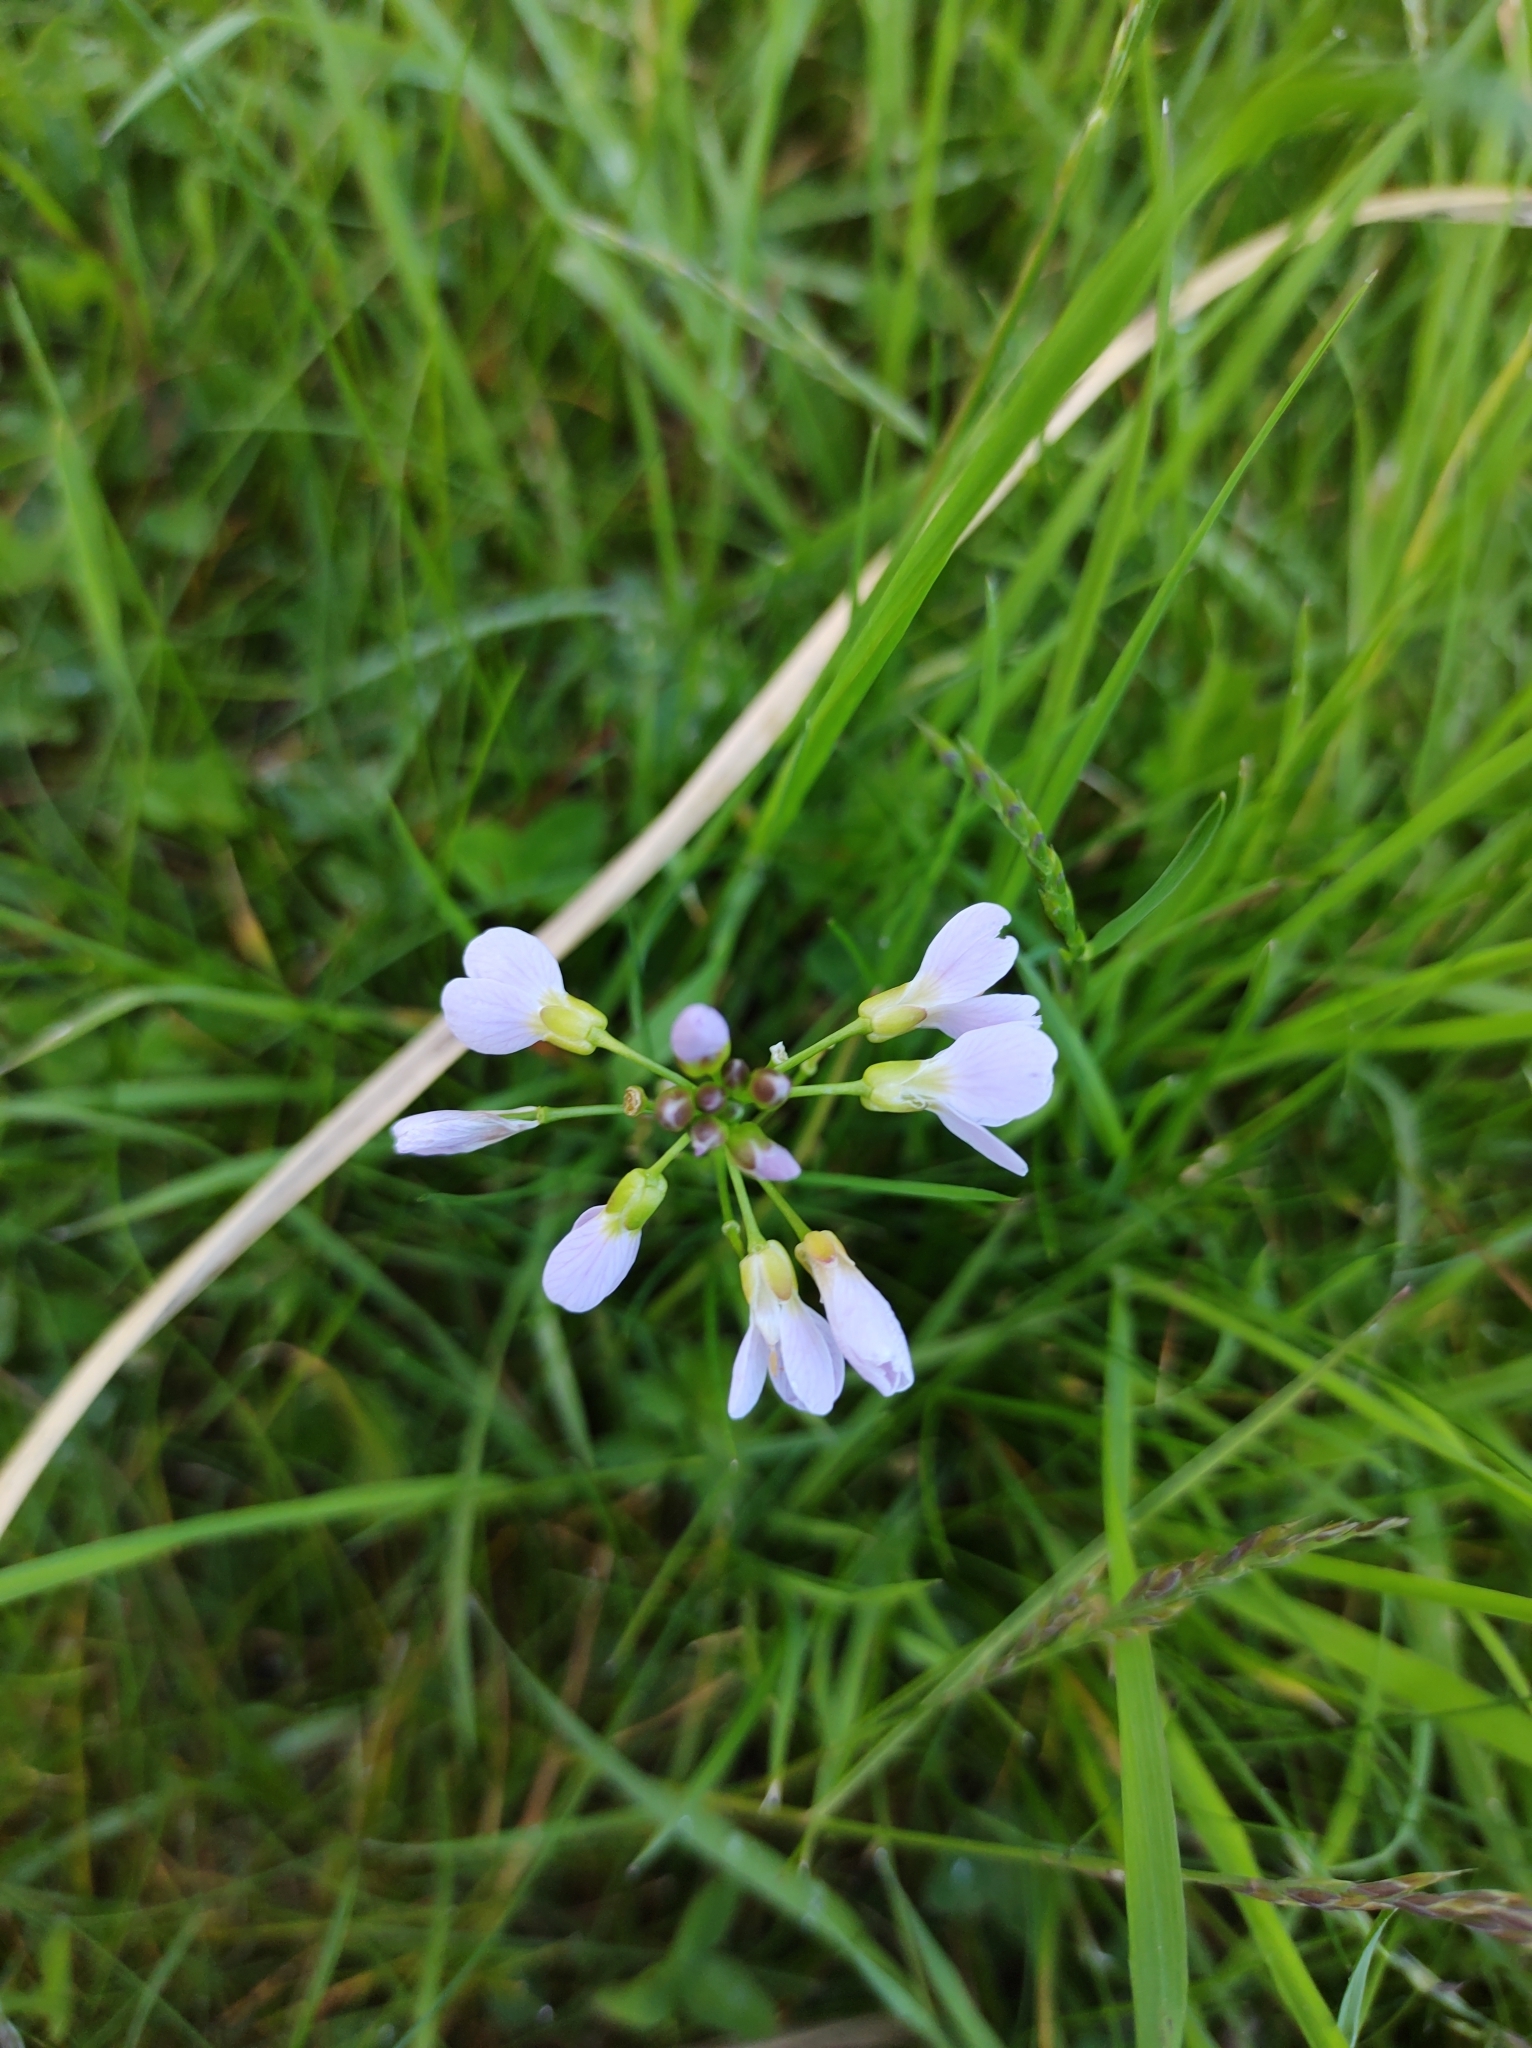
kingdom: Plantae
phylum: Tracheophyta
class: Magnoliopsida
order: Brassicales
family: Brassicaceae
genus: Cardamine
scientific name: Cardamine pratensis
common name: Cuckoo flower
